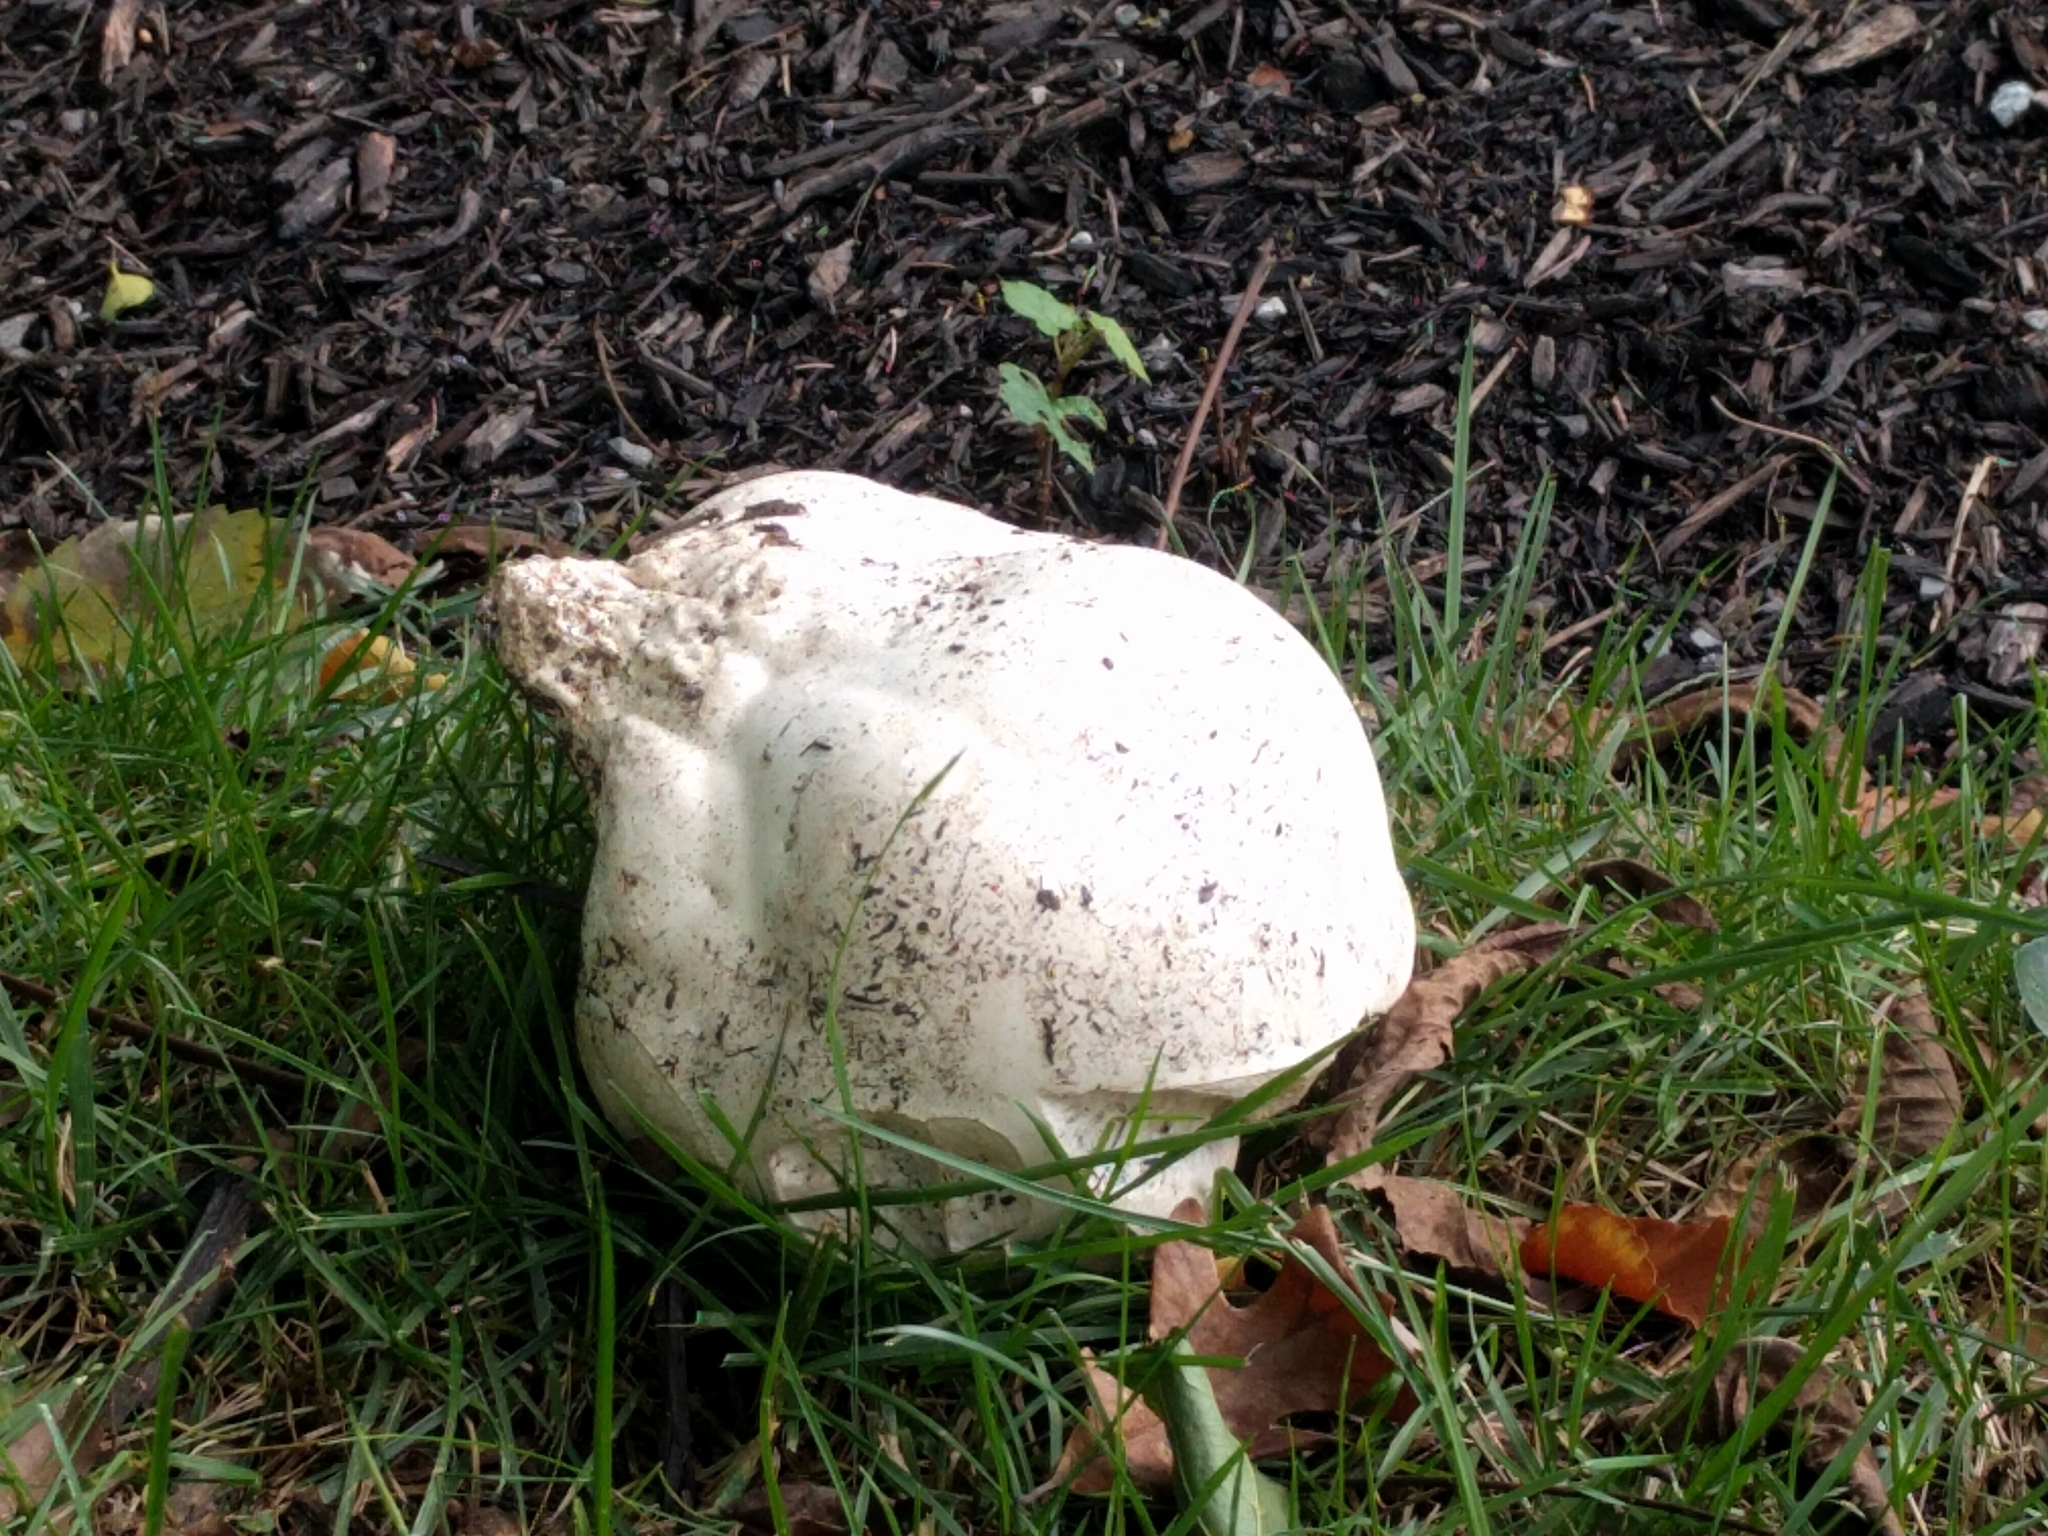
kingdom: Fungi
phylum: Basidiomycota
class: Agaricomycetes
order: Agaricales
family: Lycoperdaceae
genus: Calvatia
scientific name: Calvatia gigantea
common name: Giant puffball
